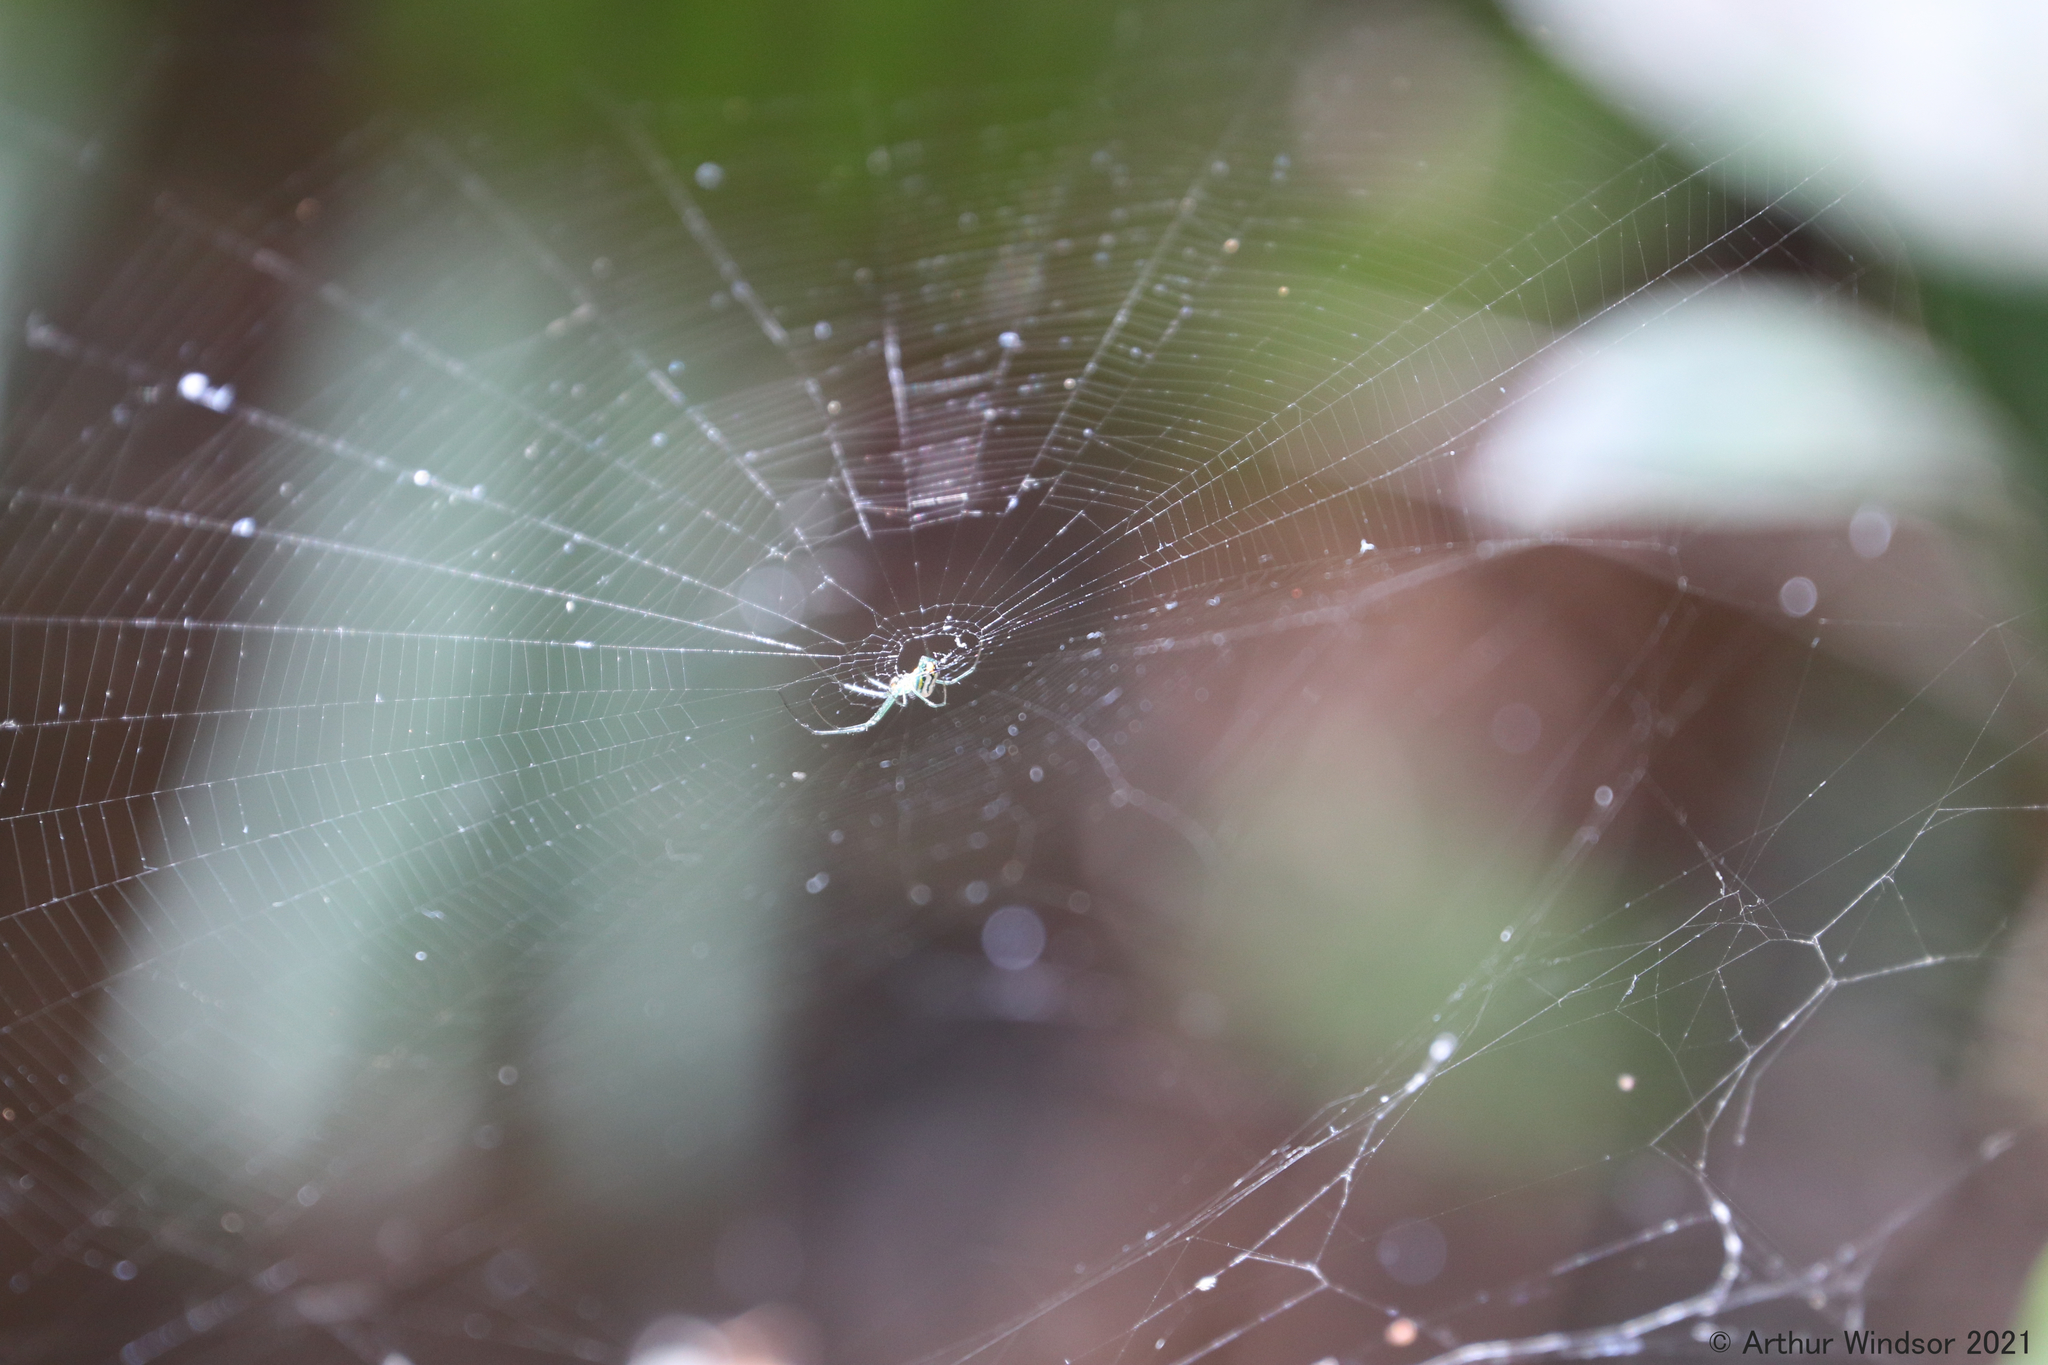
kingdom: Animalia
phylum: Arthropoda
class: Arachnida
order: Araneae
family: Tetragnathidae
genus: Leucauge
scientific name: Leucauge argyrobapta
